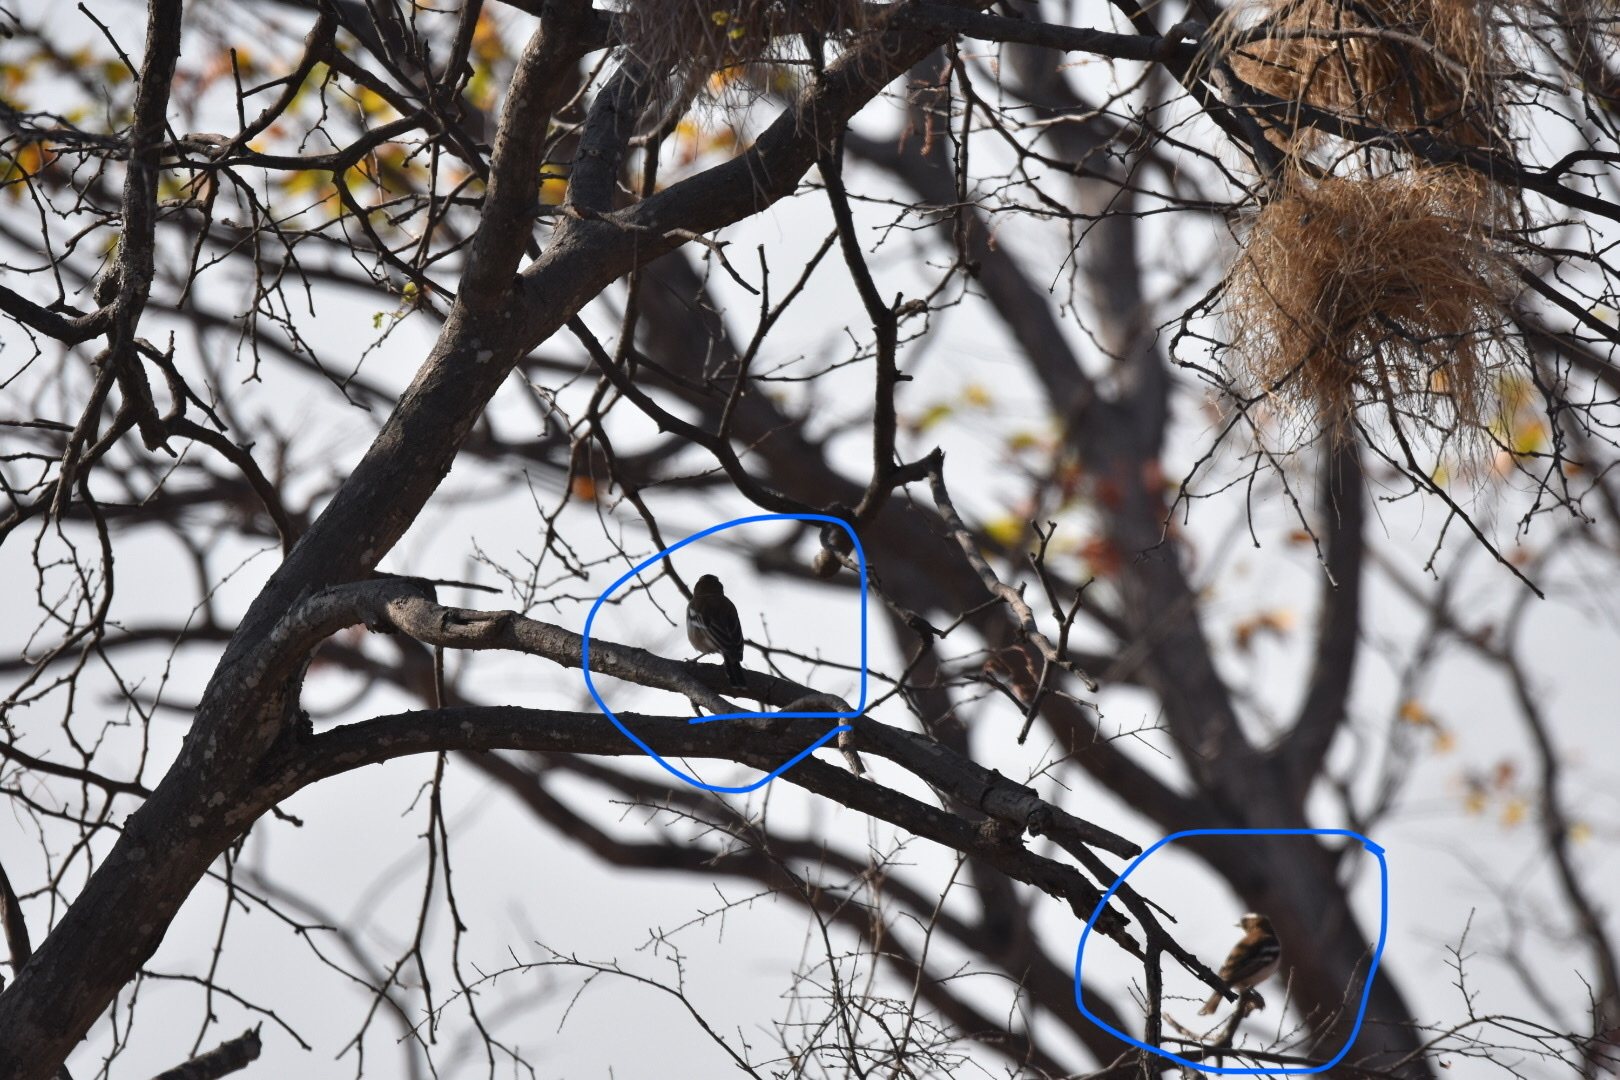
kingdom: Animalia
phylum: Chordata
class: Aves
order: Passeriformes
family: Passeridae
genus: Plocepasser
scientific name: Plocepasser mahali
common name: White-browed sparrow-weaver
